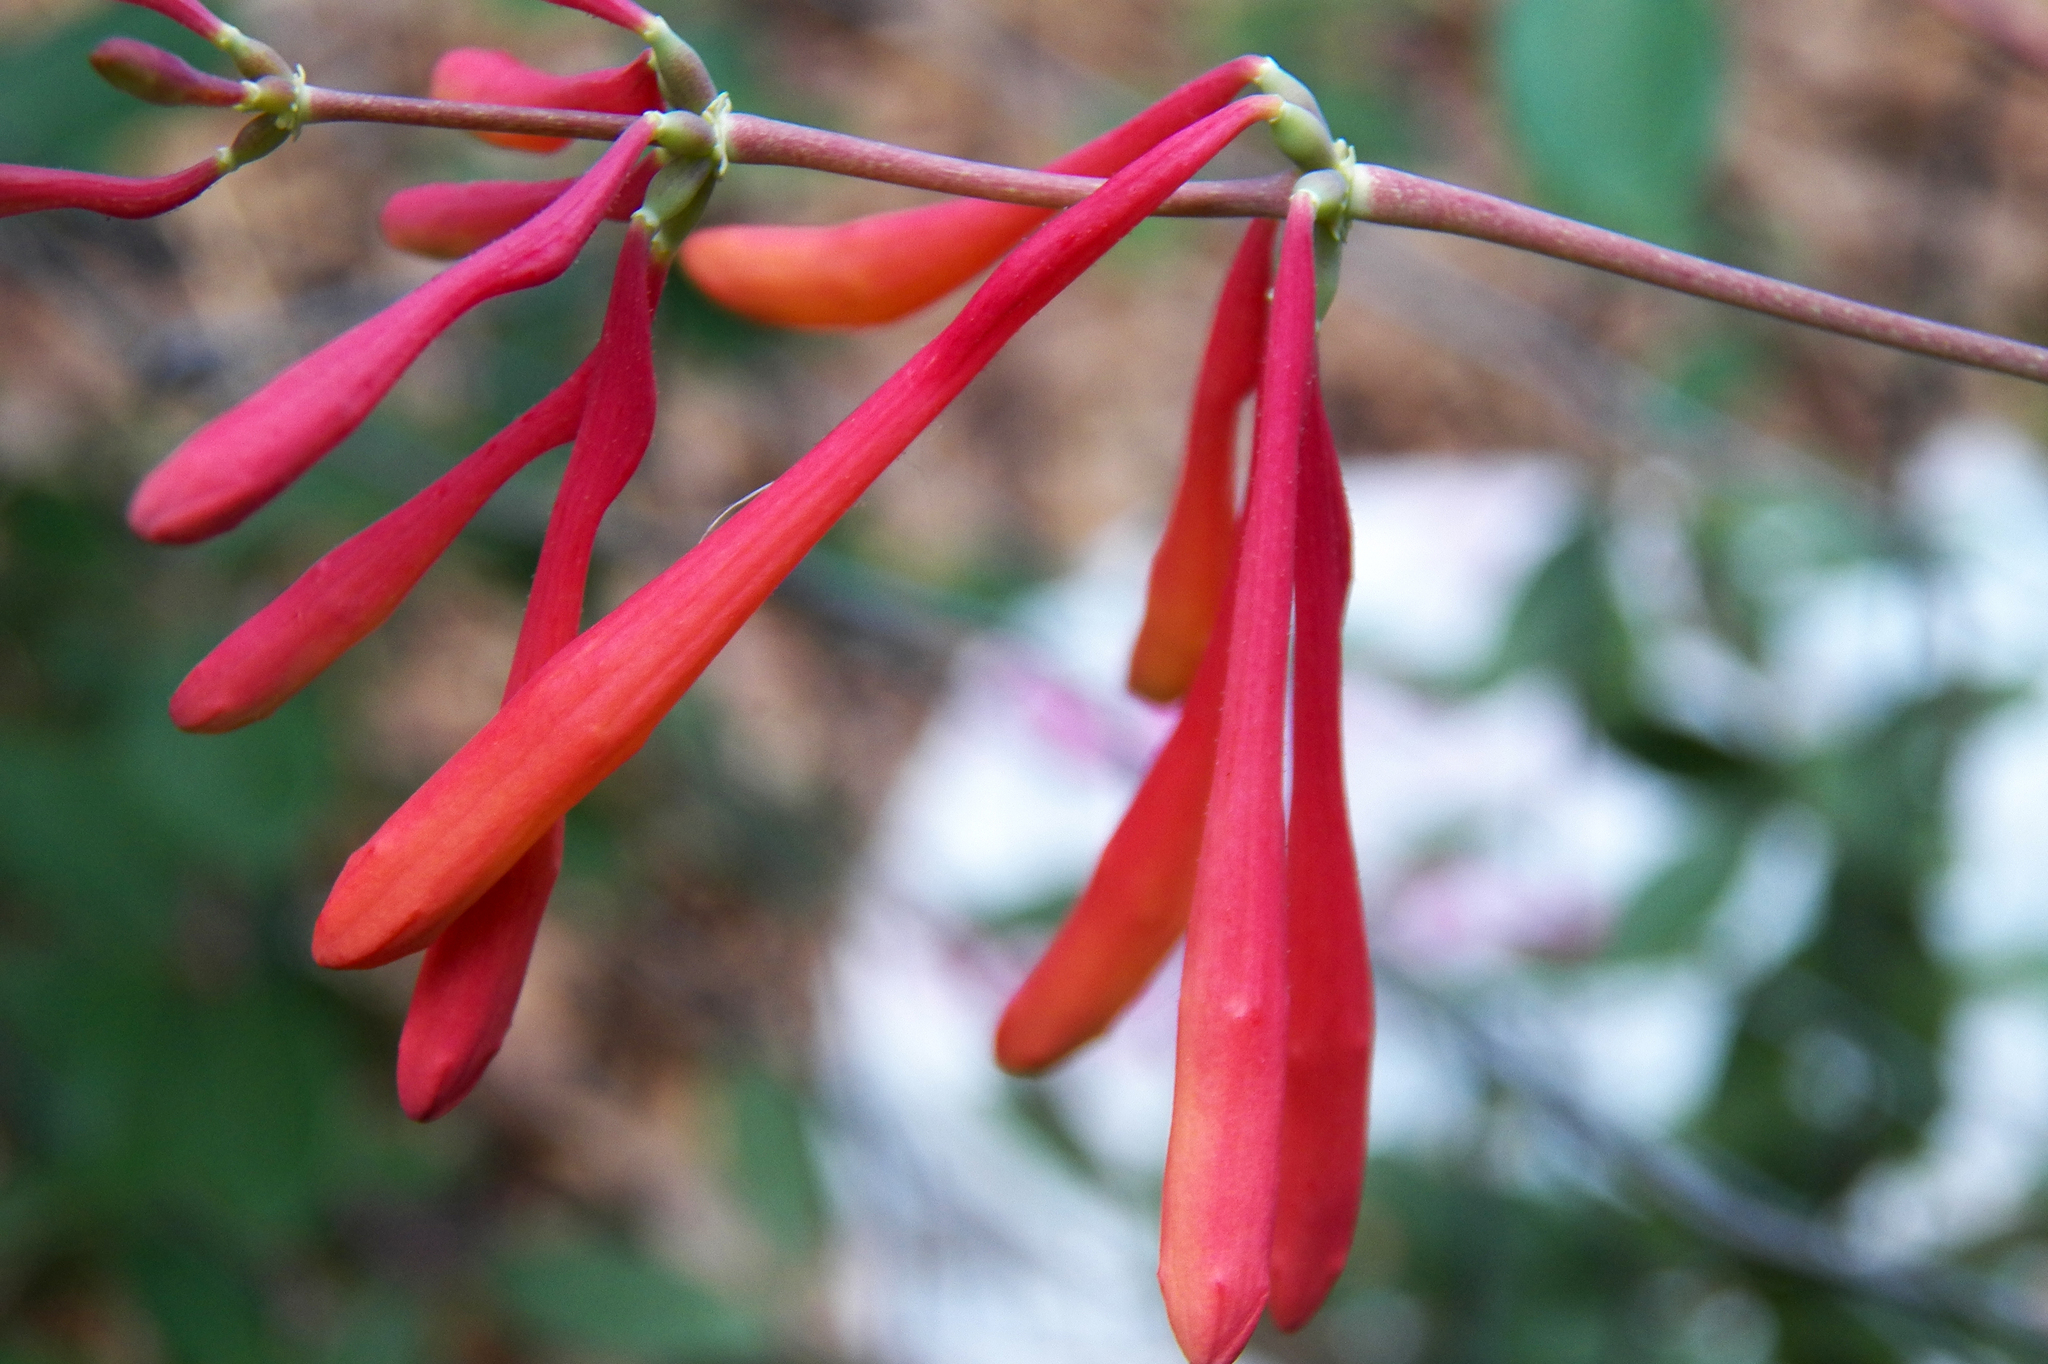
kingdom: Plantae
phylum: Tracheophyta
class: Magnoliopsida
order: Dipsacales
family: Caprifoliaceae
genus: Lonicera
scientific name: Lonicera sempervirens
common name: Coral honeysuckle
